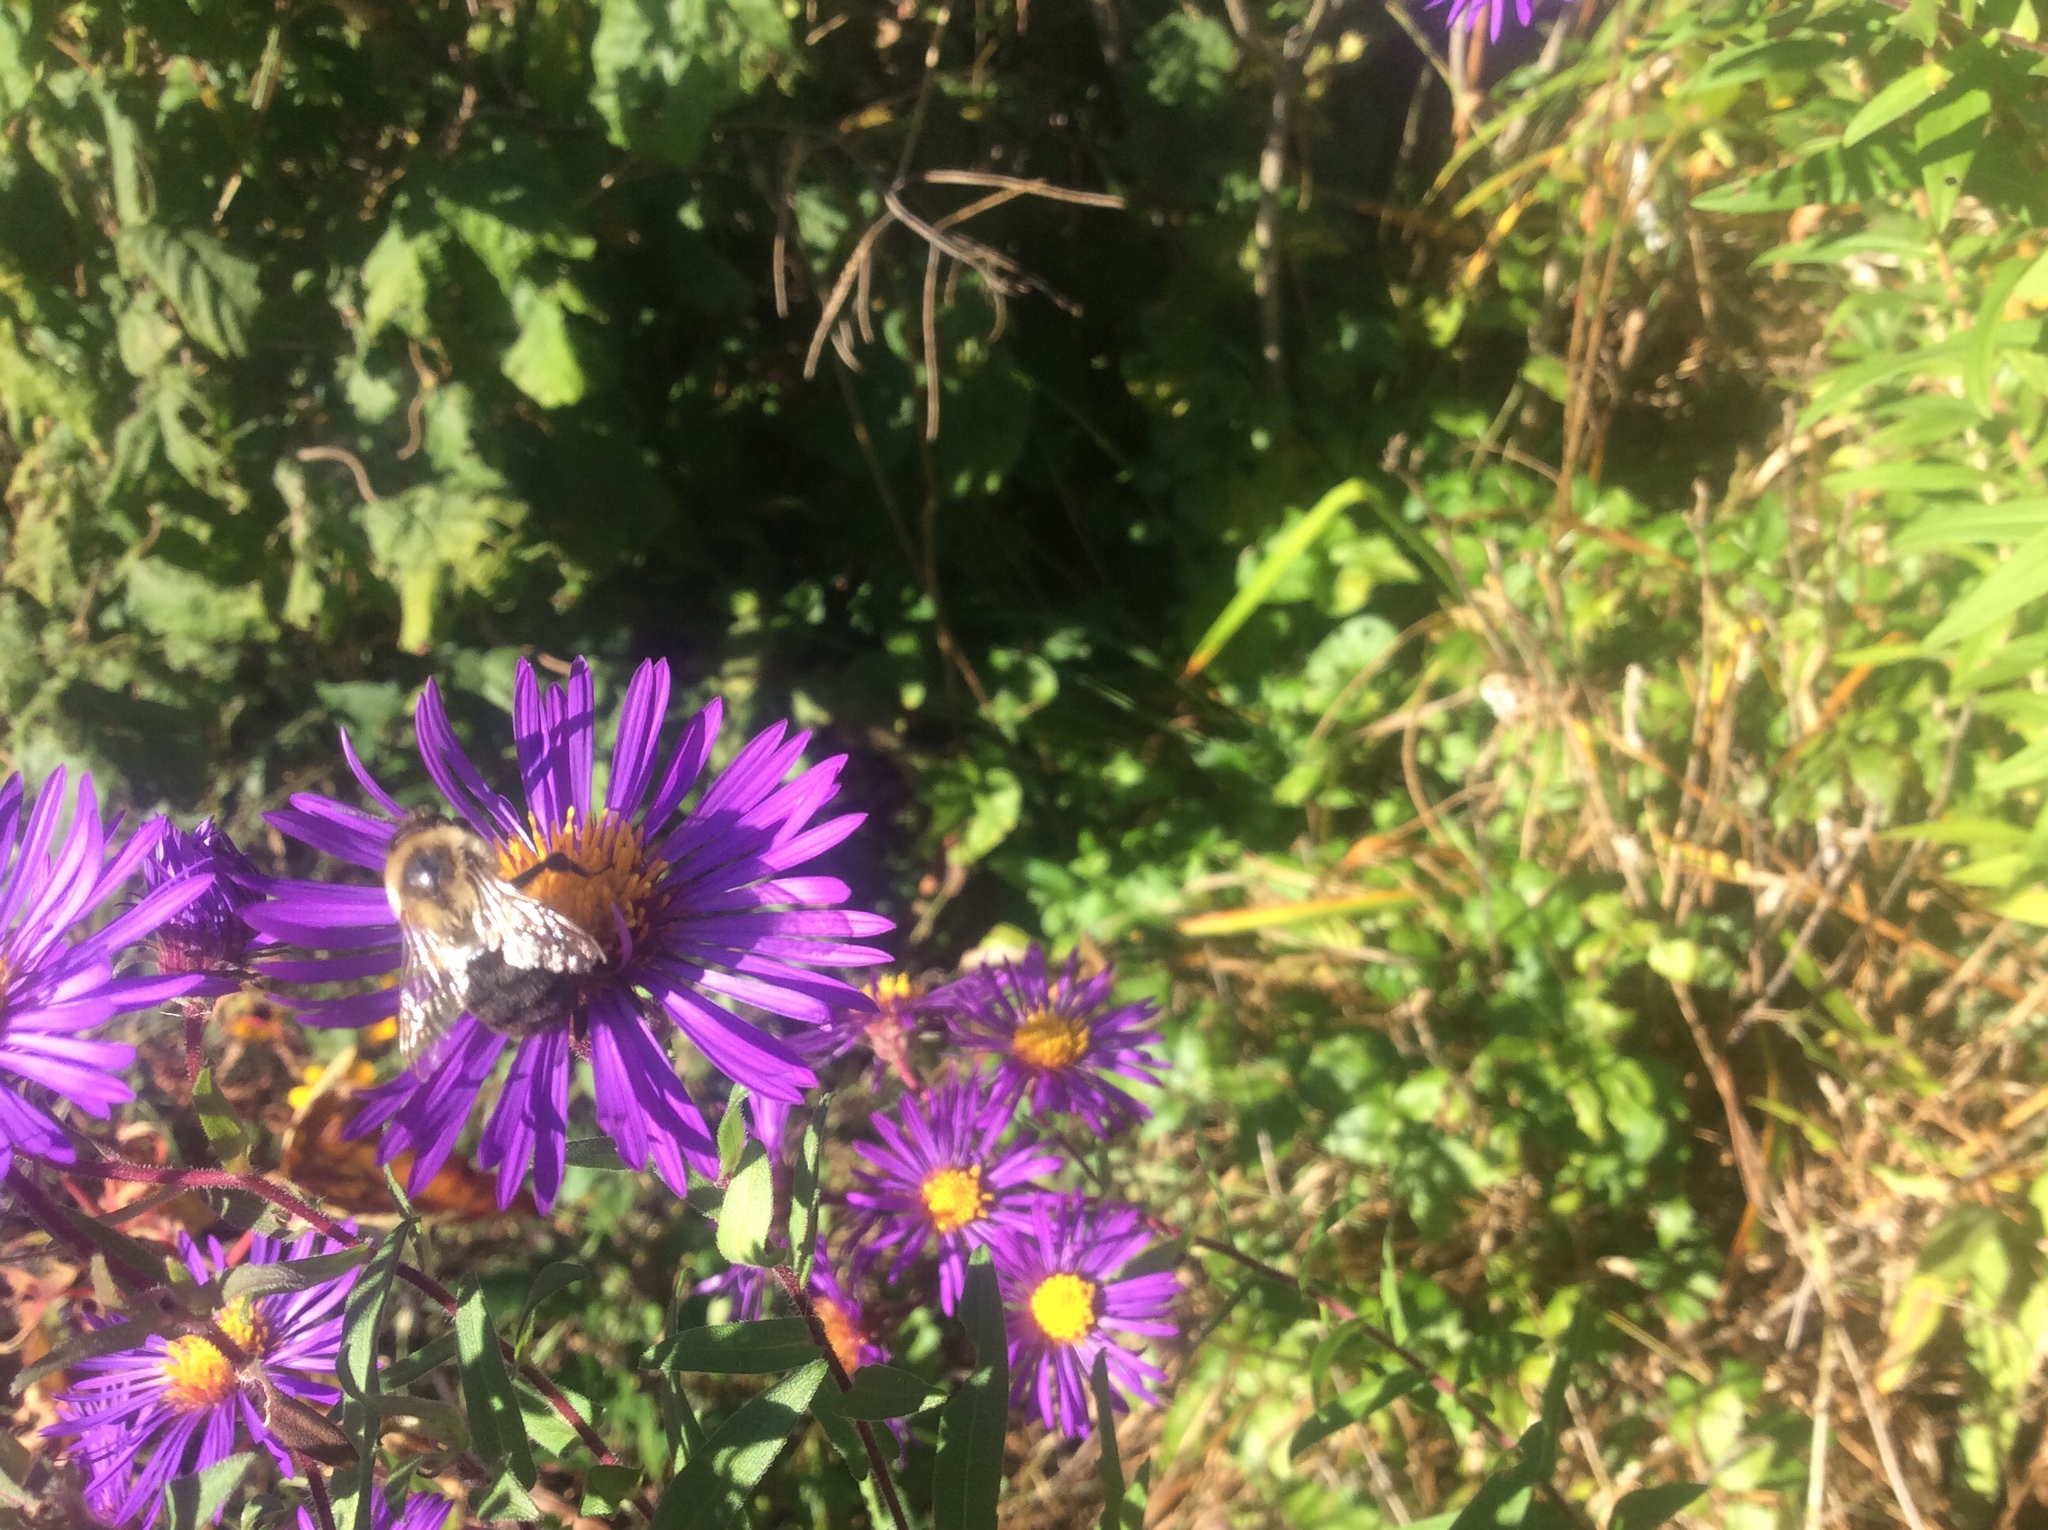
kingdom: Animalia
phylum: Arthropoda
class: Insecta
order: Hymenoptera
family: Apidae
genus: Bombus
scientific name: Bombus impatiens
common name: Common eastern bumble bee
